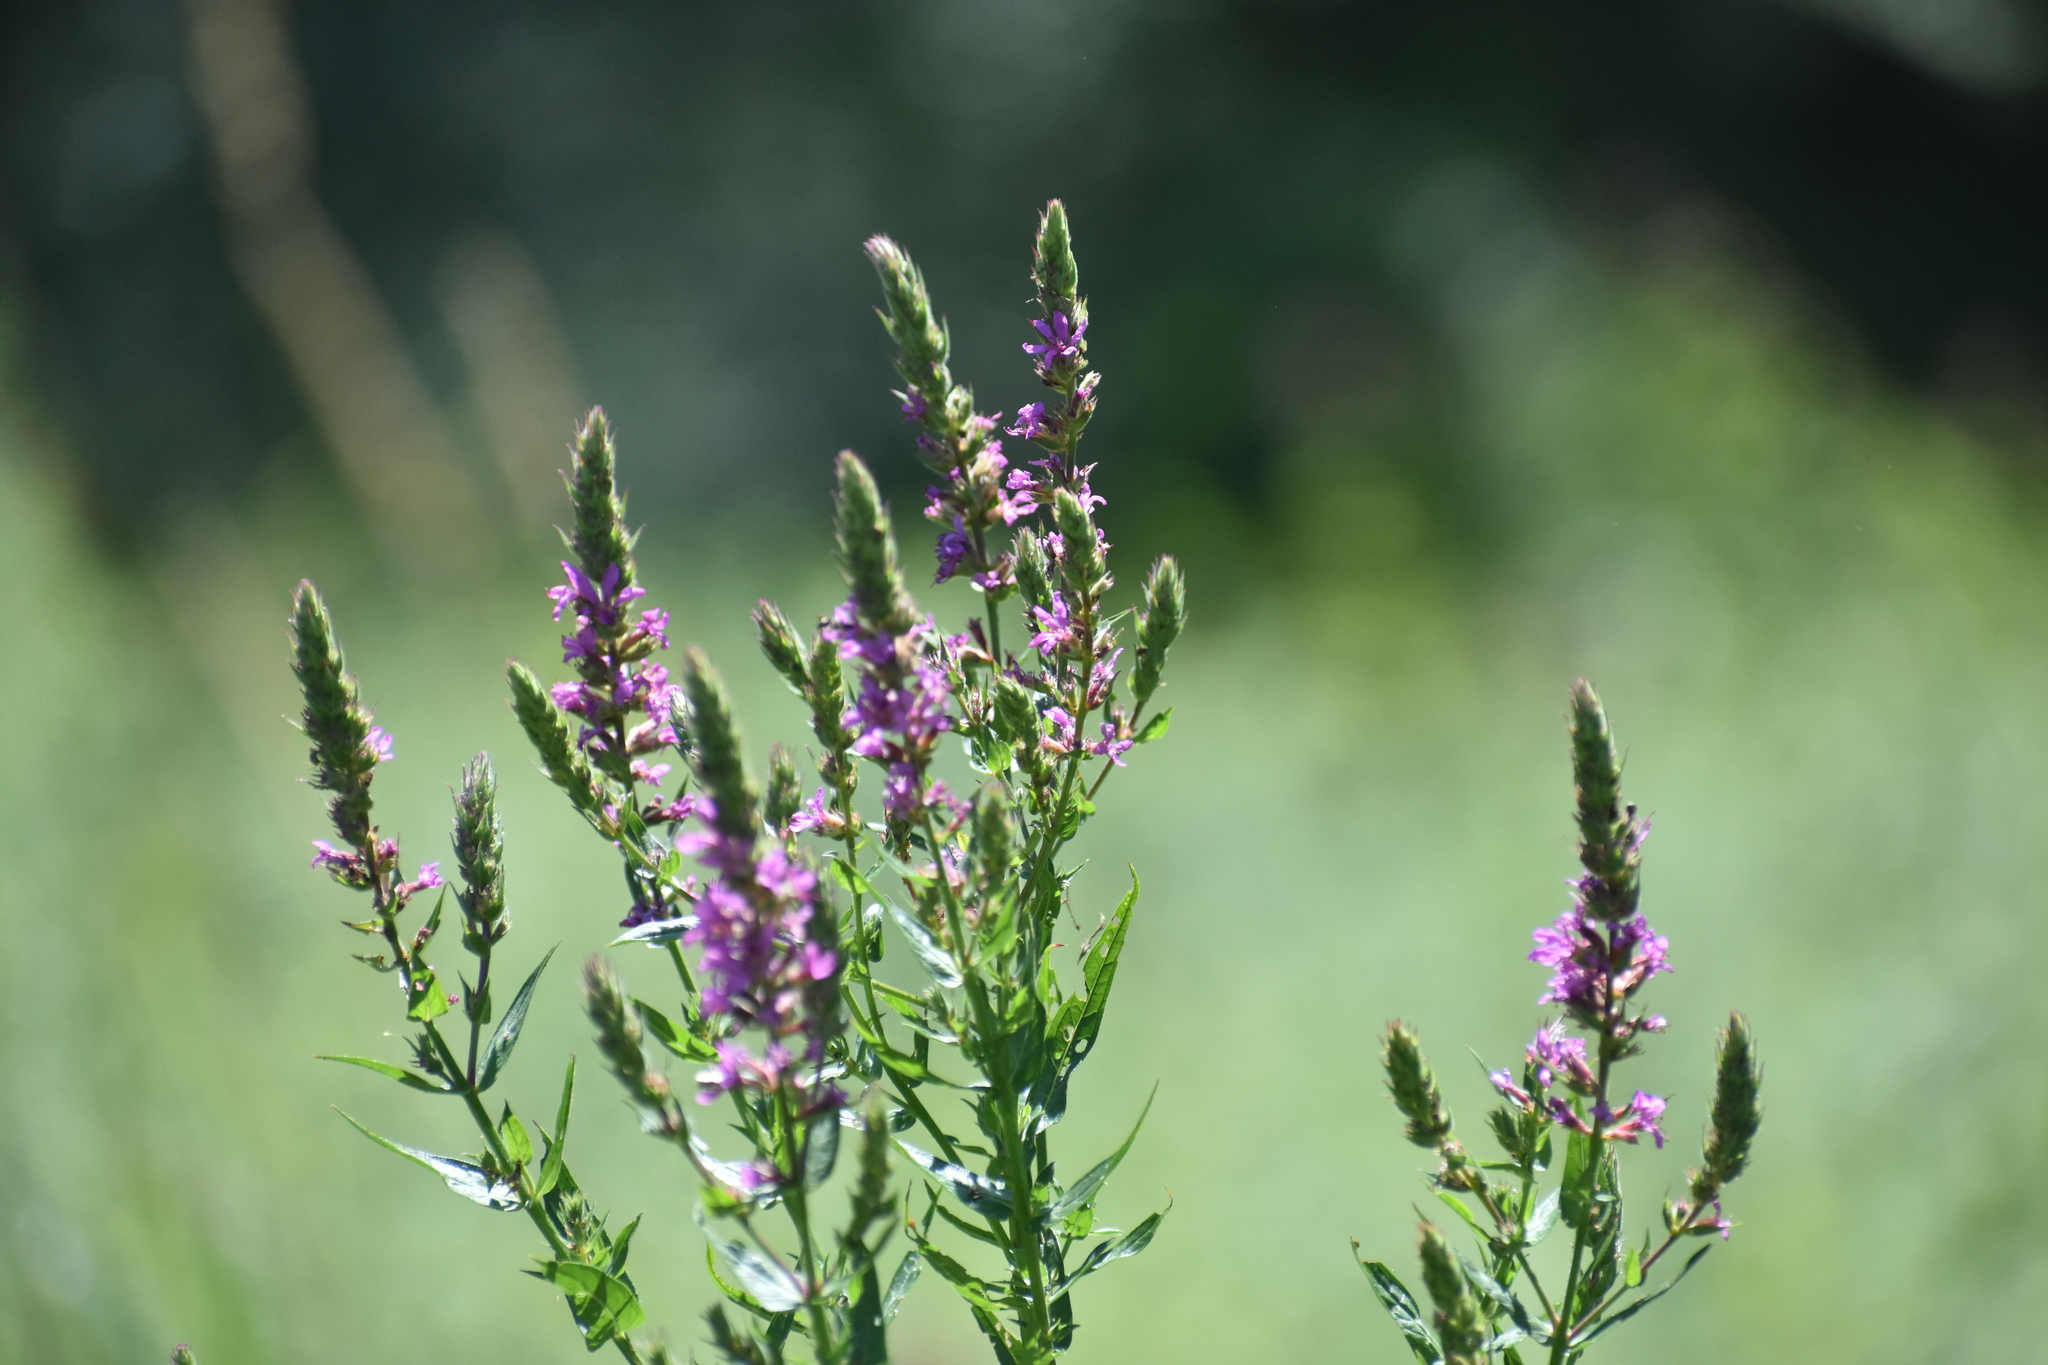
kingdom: Plantae
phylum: Tracheophyta
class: Magnoliopsida
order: Myrtales
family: Lythraceae
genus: Lythrum
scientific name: Lythrum salicaria
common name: Purple loosestrife
